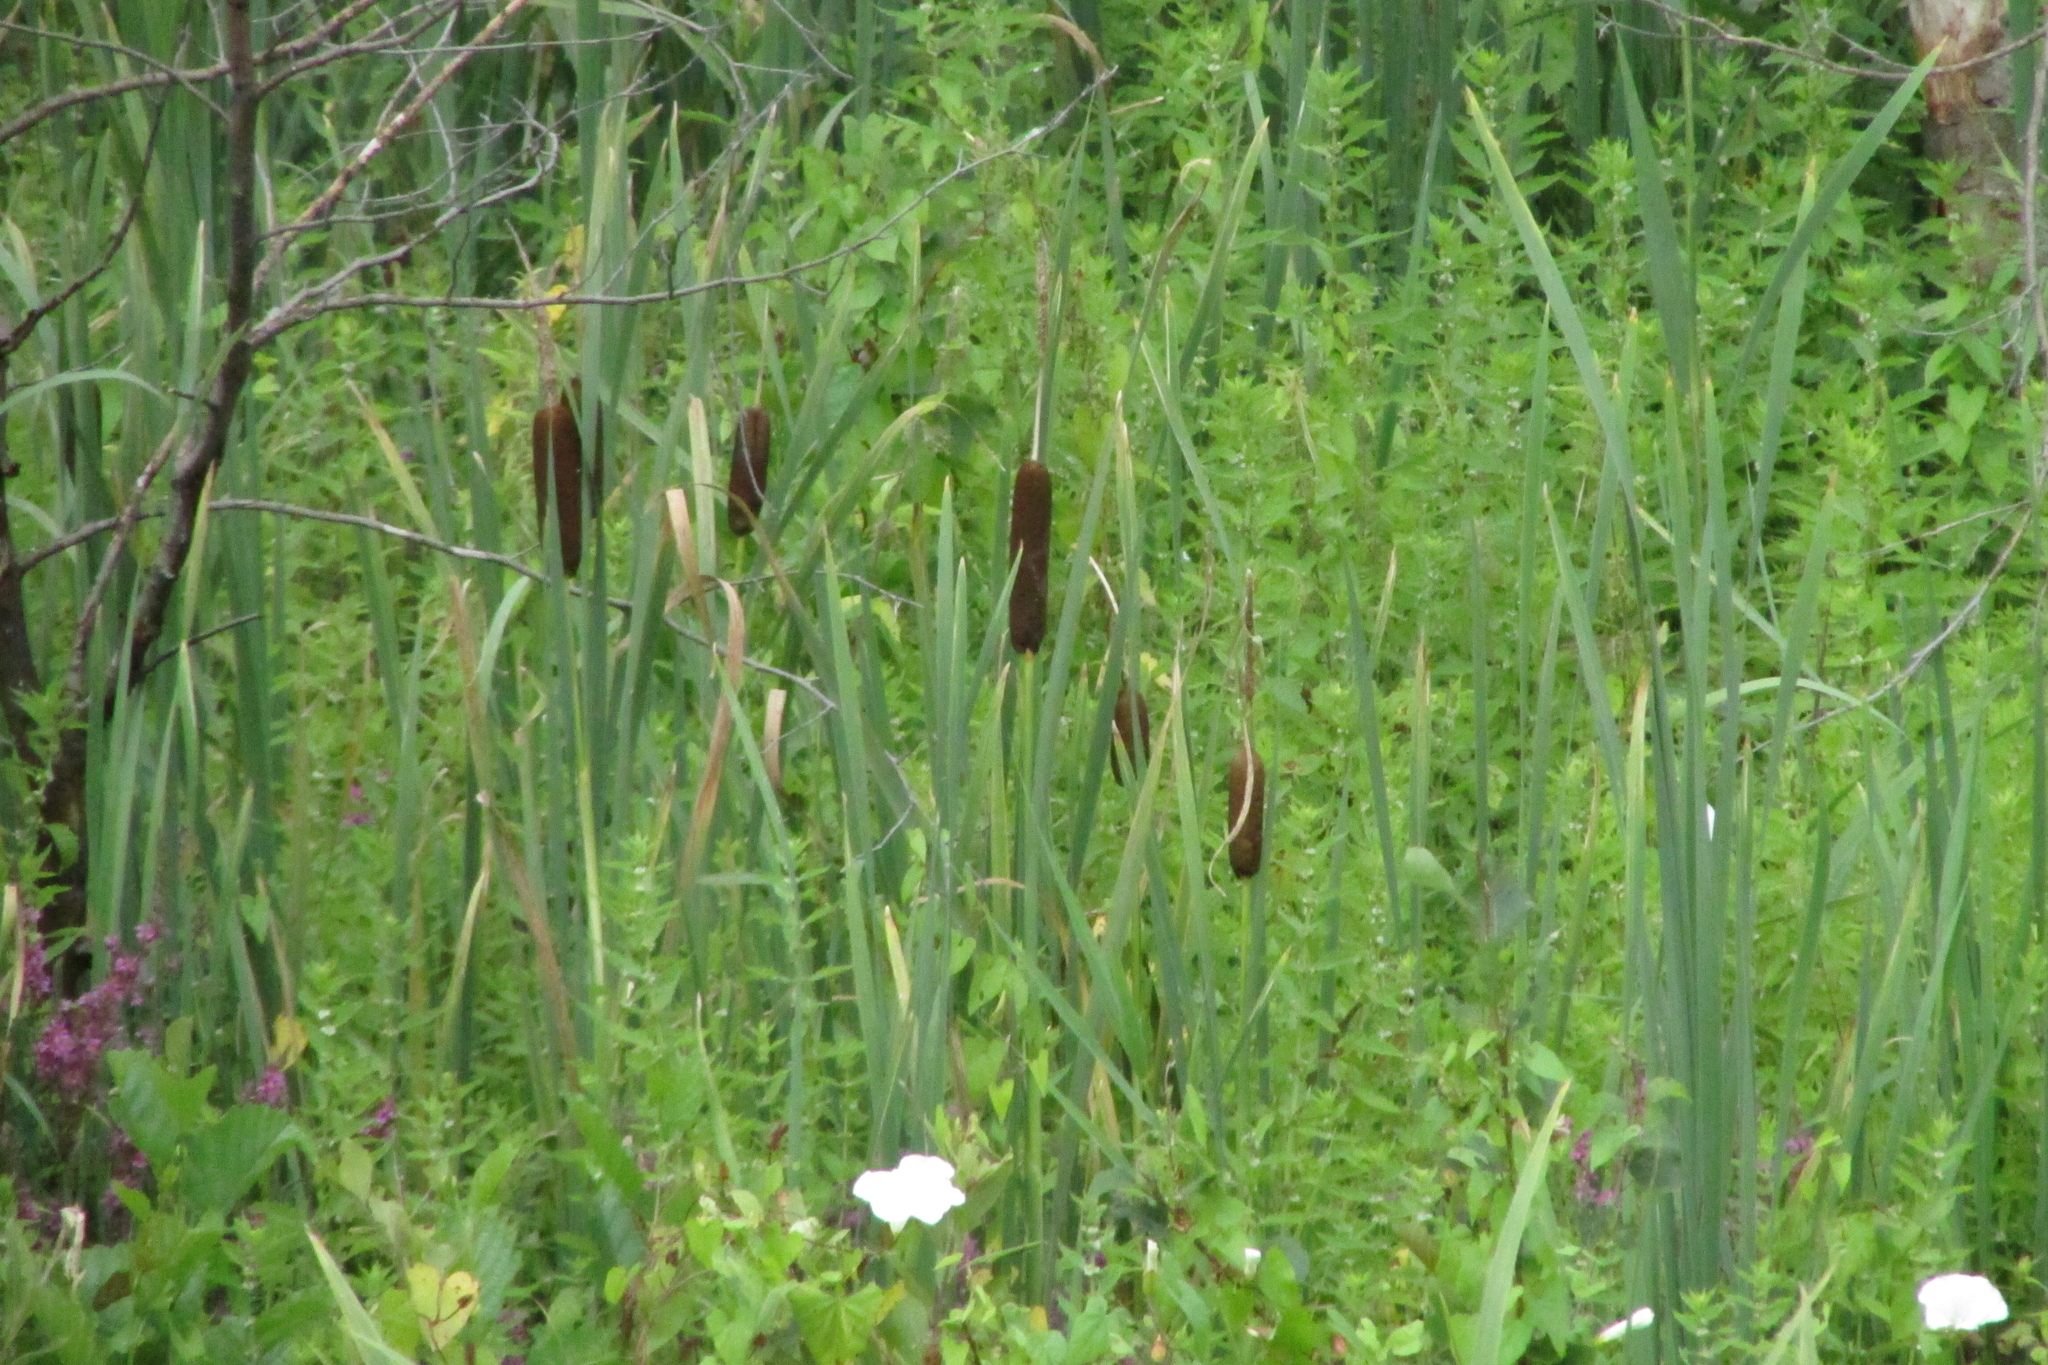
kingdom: Plantae
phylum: Tracheophyta
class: Liliopsida
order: Poales
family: Typhaceae
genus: Typha
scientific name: Typha latifolia
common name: Broadleaf cattail
